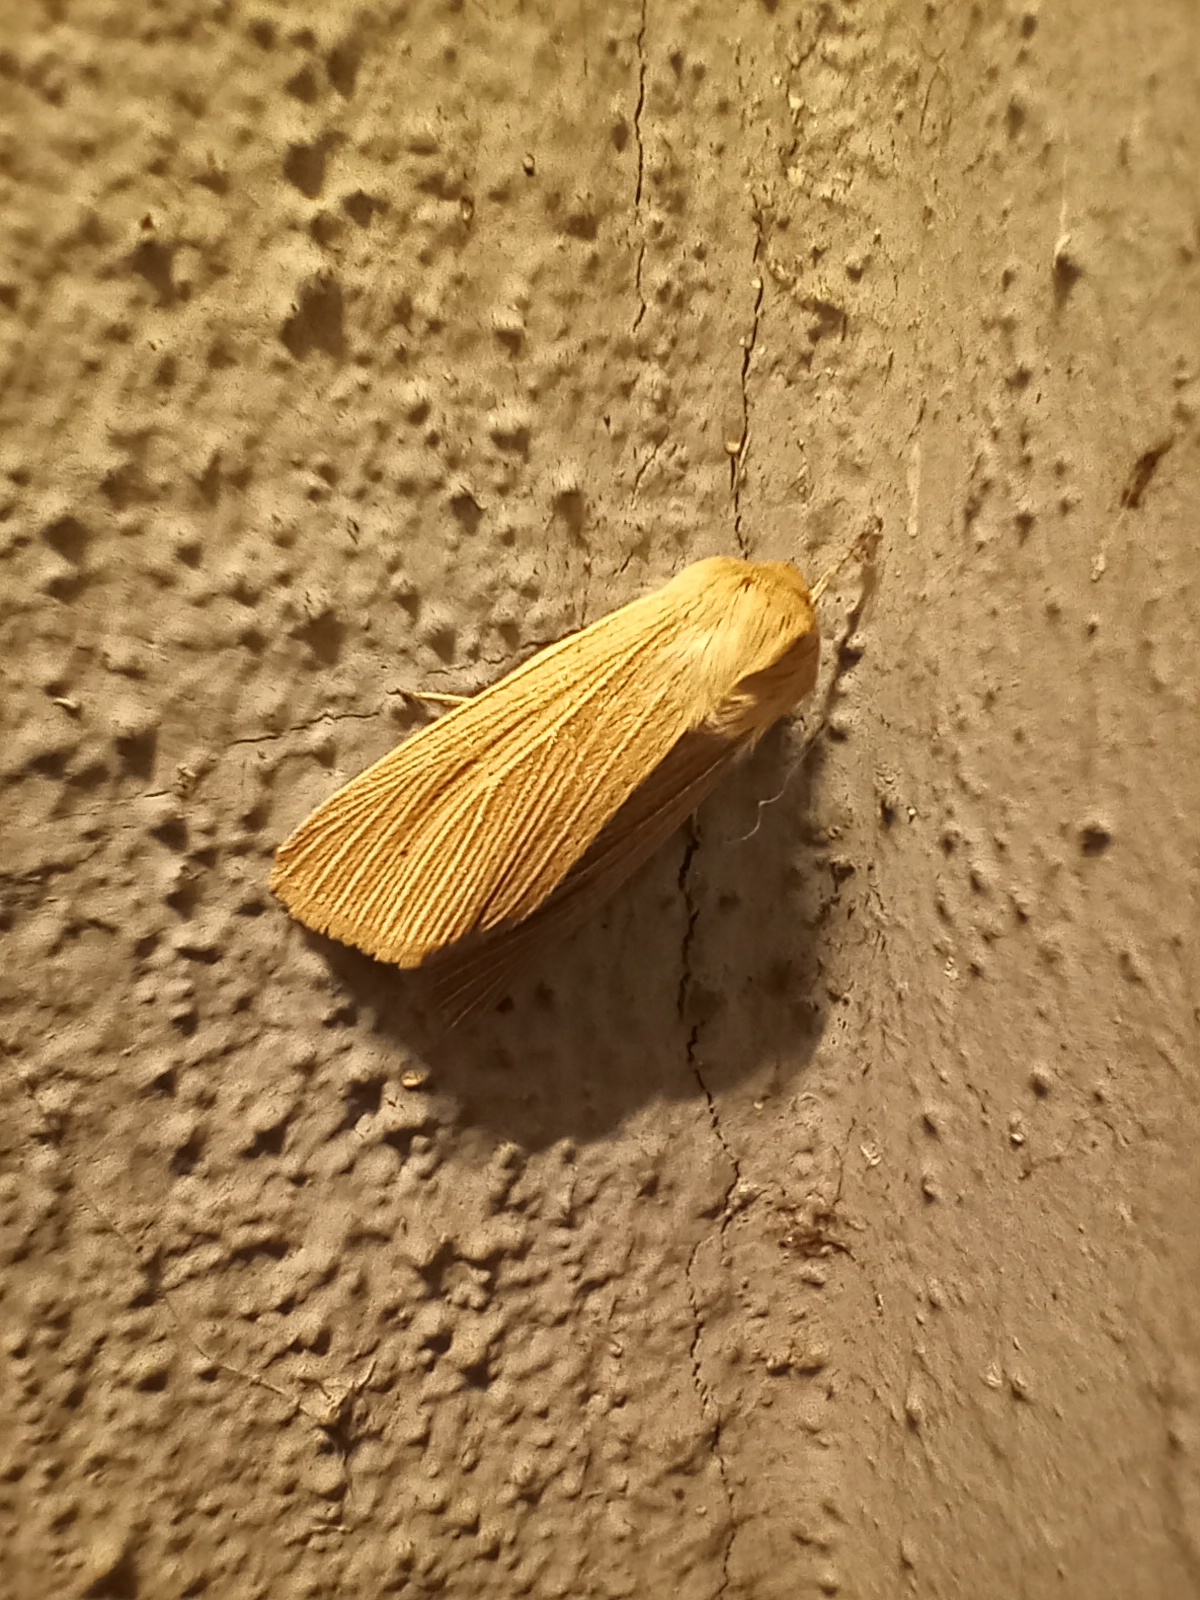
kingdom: Animalia
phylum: Arthropoda
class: Insecta
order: Lepidoptera
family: Noctuidae
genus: Mythimna
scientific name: Mythimna pallens
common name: Common wainscot
